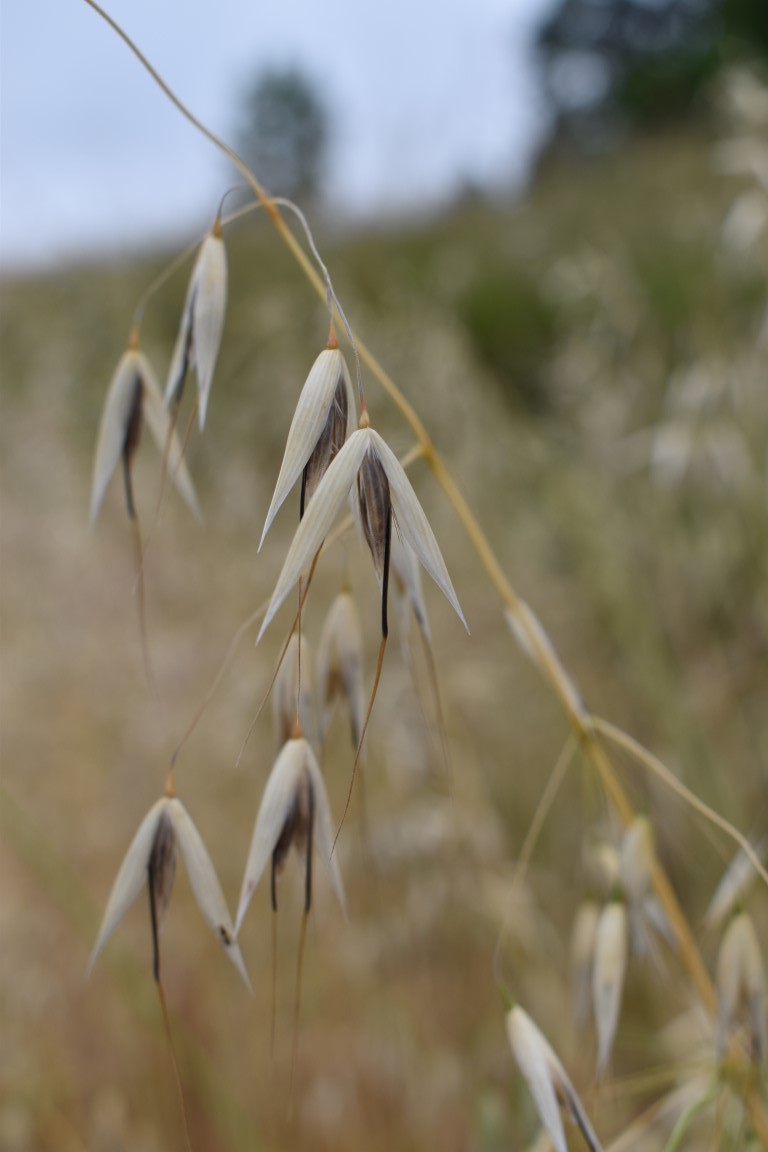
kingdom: Plantae
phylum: Tracheophyta
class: Liliopsida
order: Poales
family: Poaceae
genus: Avena
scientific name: Avena fatua
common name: Wild oat
